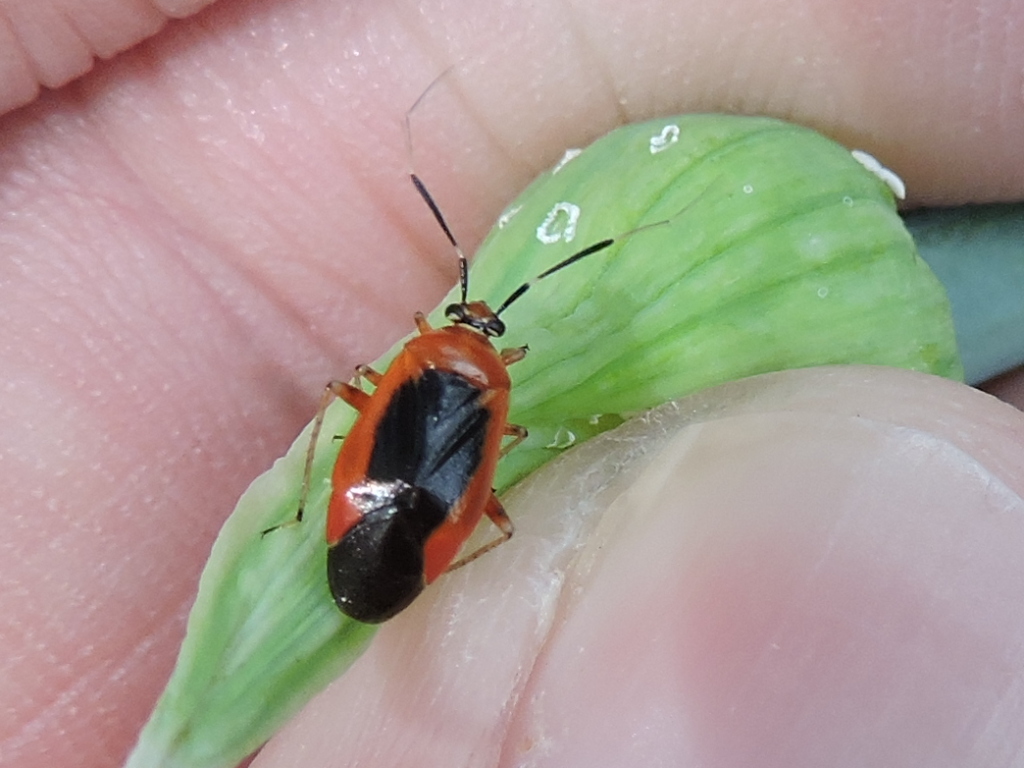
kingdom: Animalia
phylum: Arthropoda
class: Insecta
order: Hemiptera
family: Miridae
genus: Metriorrhynchomiris
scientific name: Metriorrhynchomiris dislocatus
